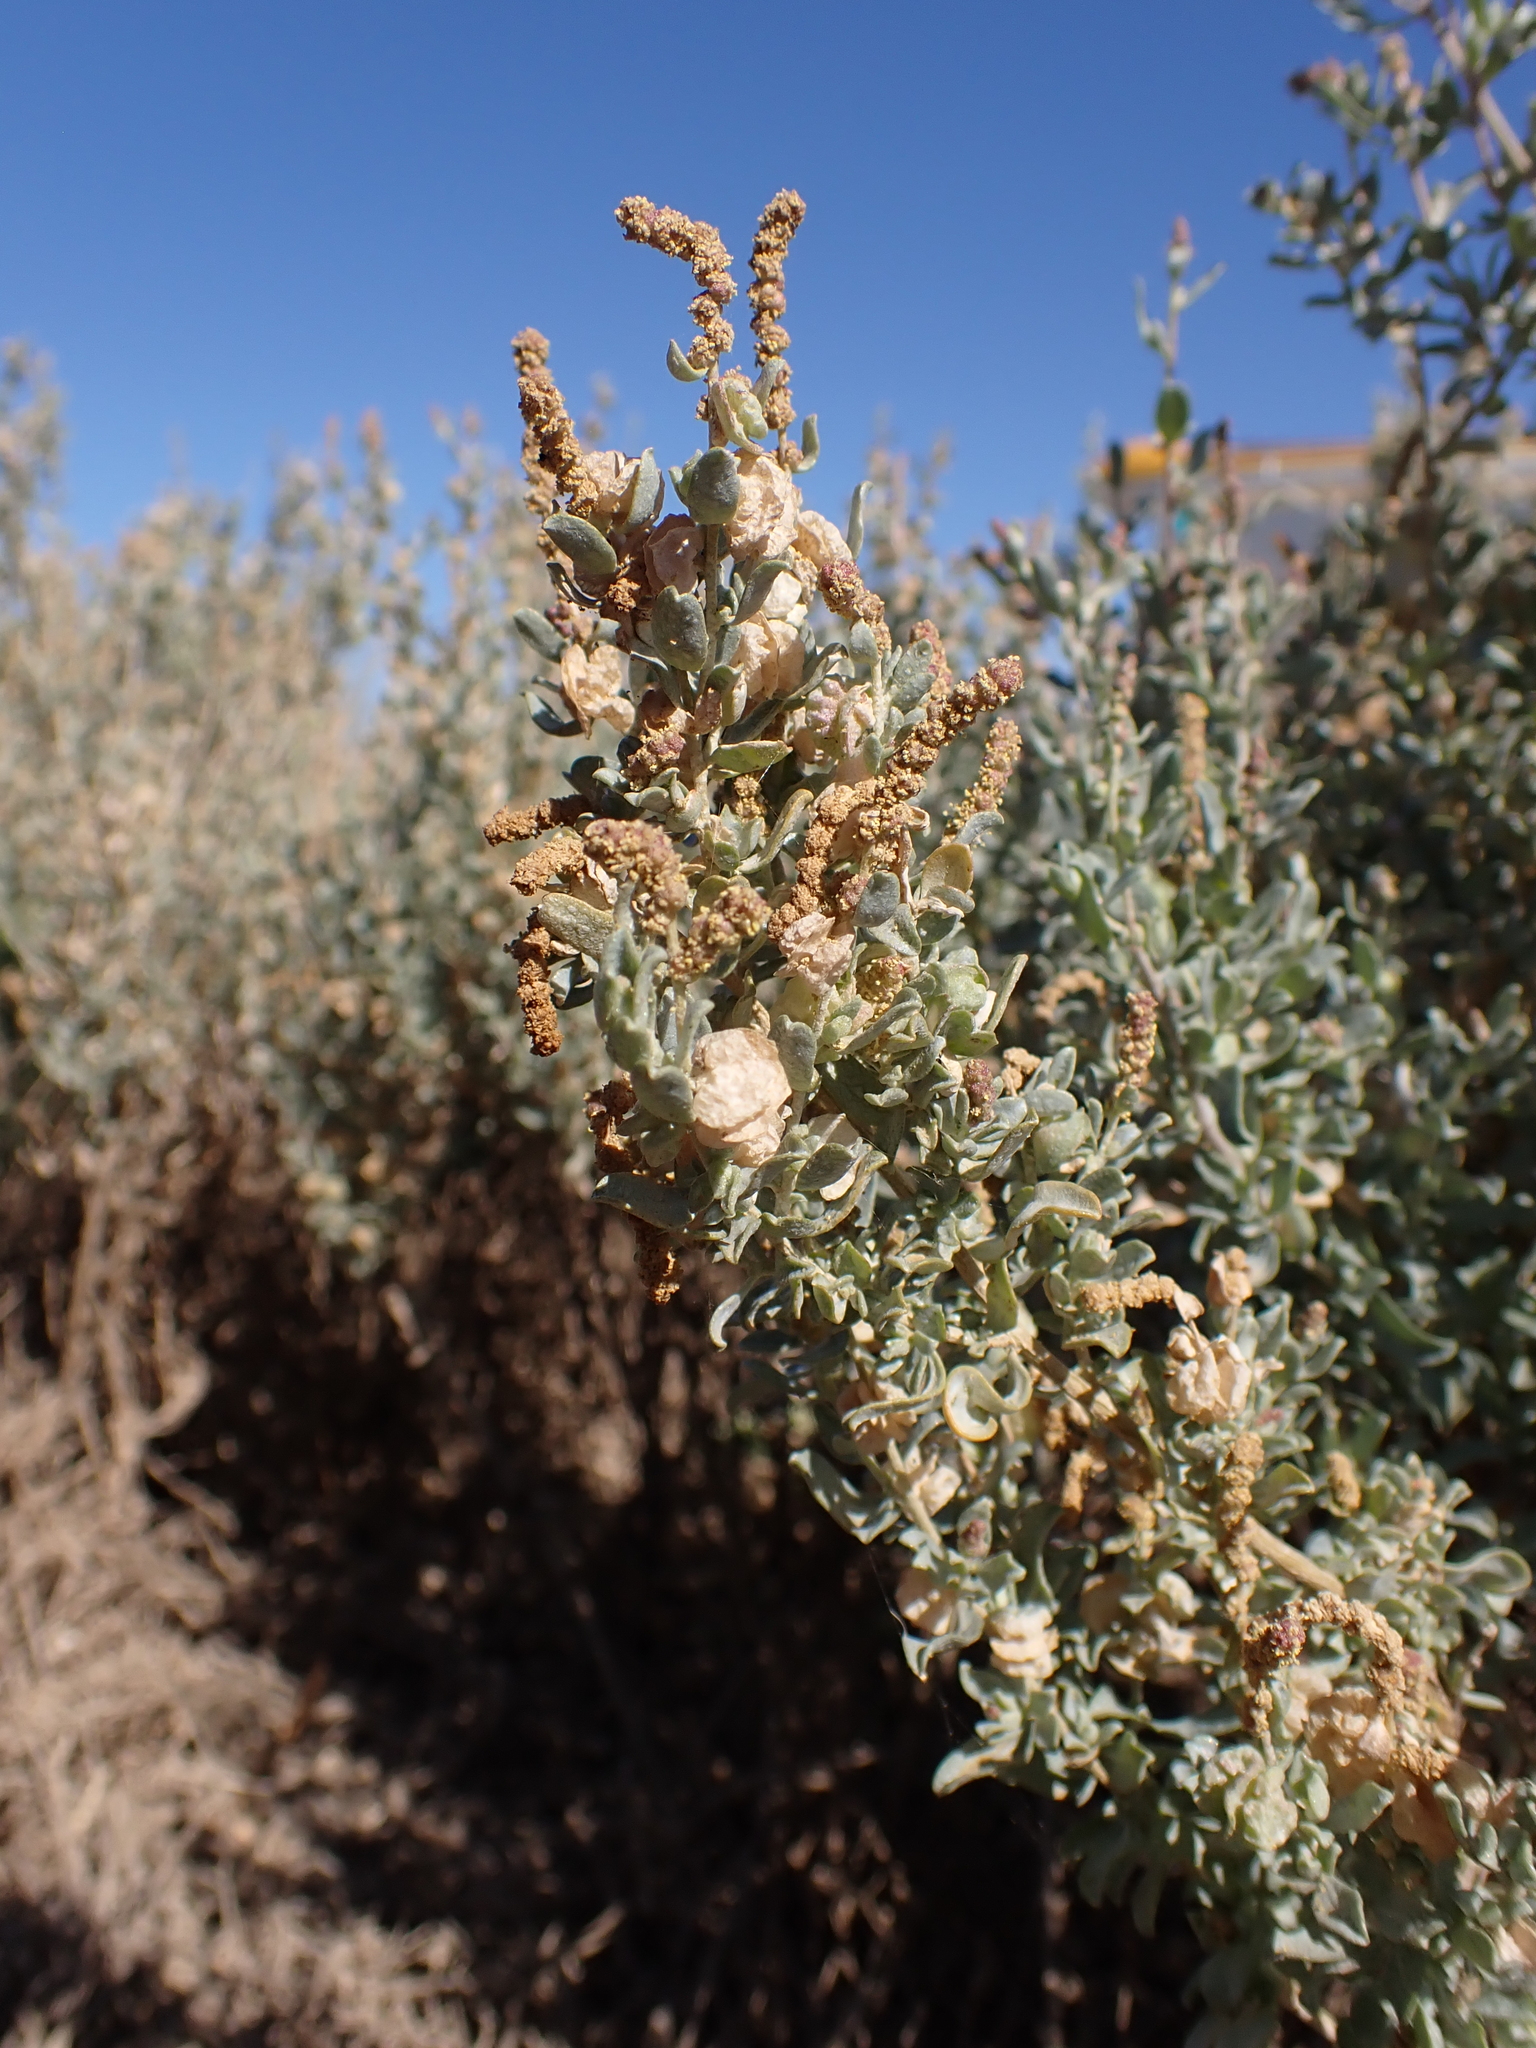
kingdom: Plantae
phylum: Tracheophyta
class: Magnoliopsida
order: Caryophyllales
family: Amaranthaceae
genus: Atriplex
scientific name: Atriplex vesicaria
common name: Aboriginal saltbush
